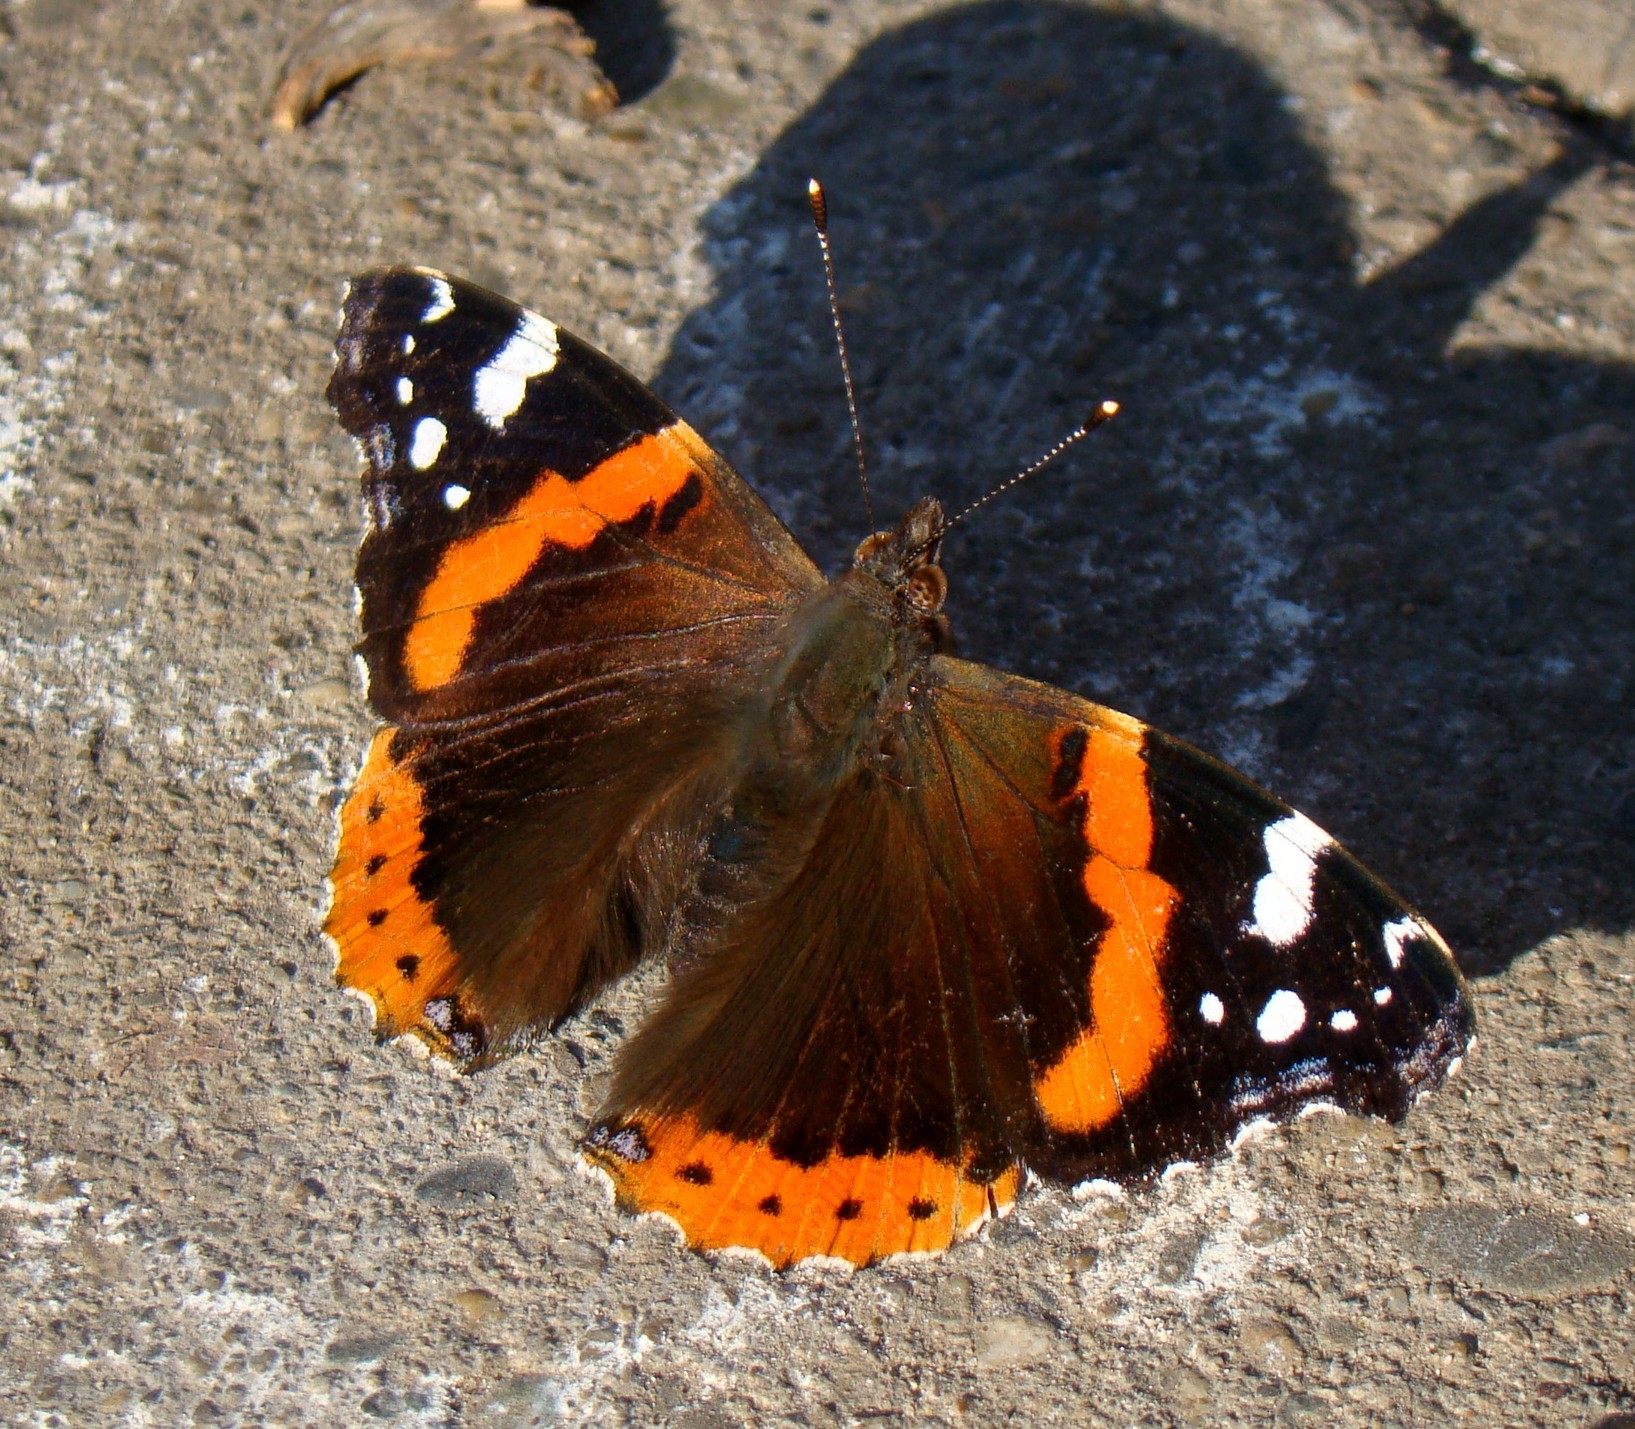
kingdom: Animalia
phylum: Arthropoda
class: Insecta
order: Lepidoptera
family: Nymphalidae
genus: Vanessa
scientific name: Vanessa atalanta
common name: Red admiral
